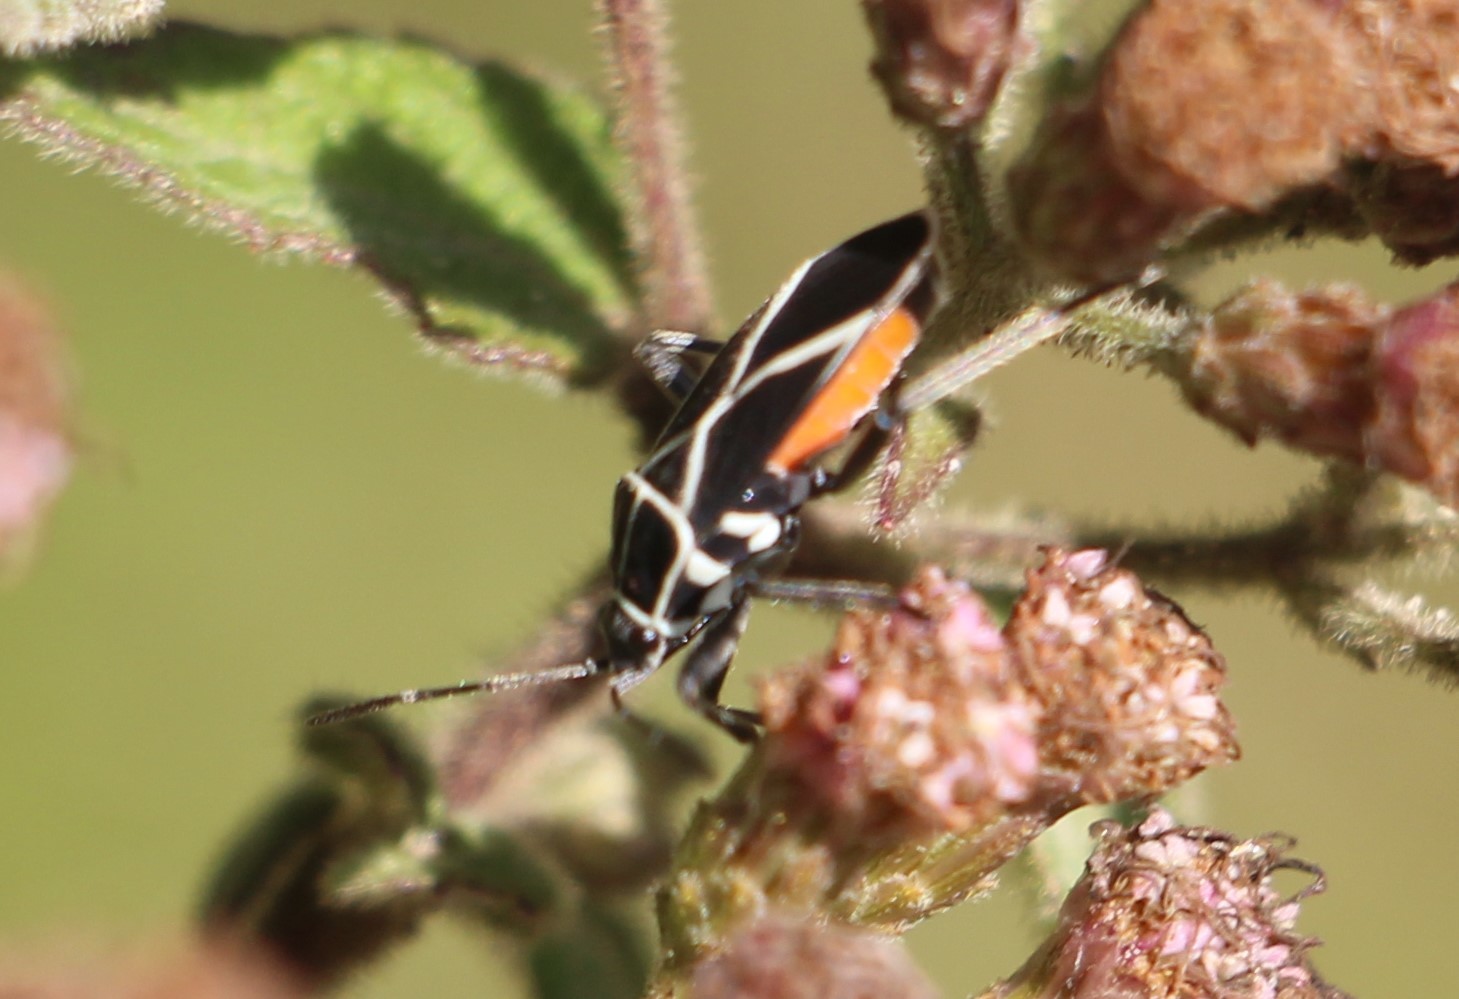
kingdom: Animalia
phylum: Arthropoda
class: Insecta
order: Hemiptera
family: Lygaeidae
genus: Craspeduchus
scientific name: Craspeduchus nigrolimbatus
